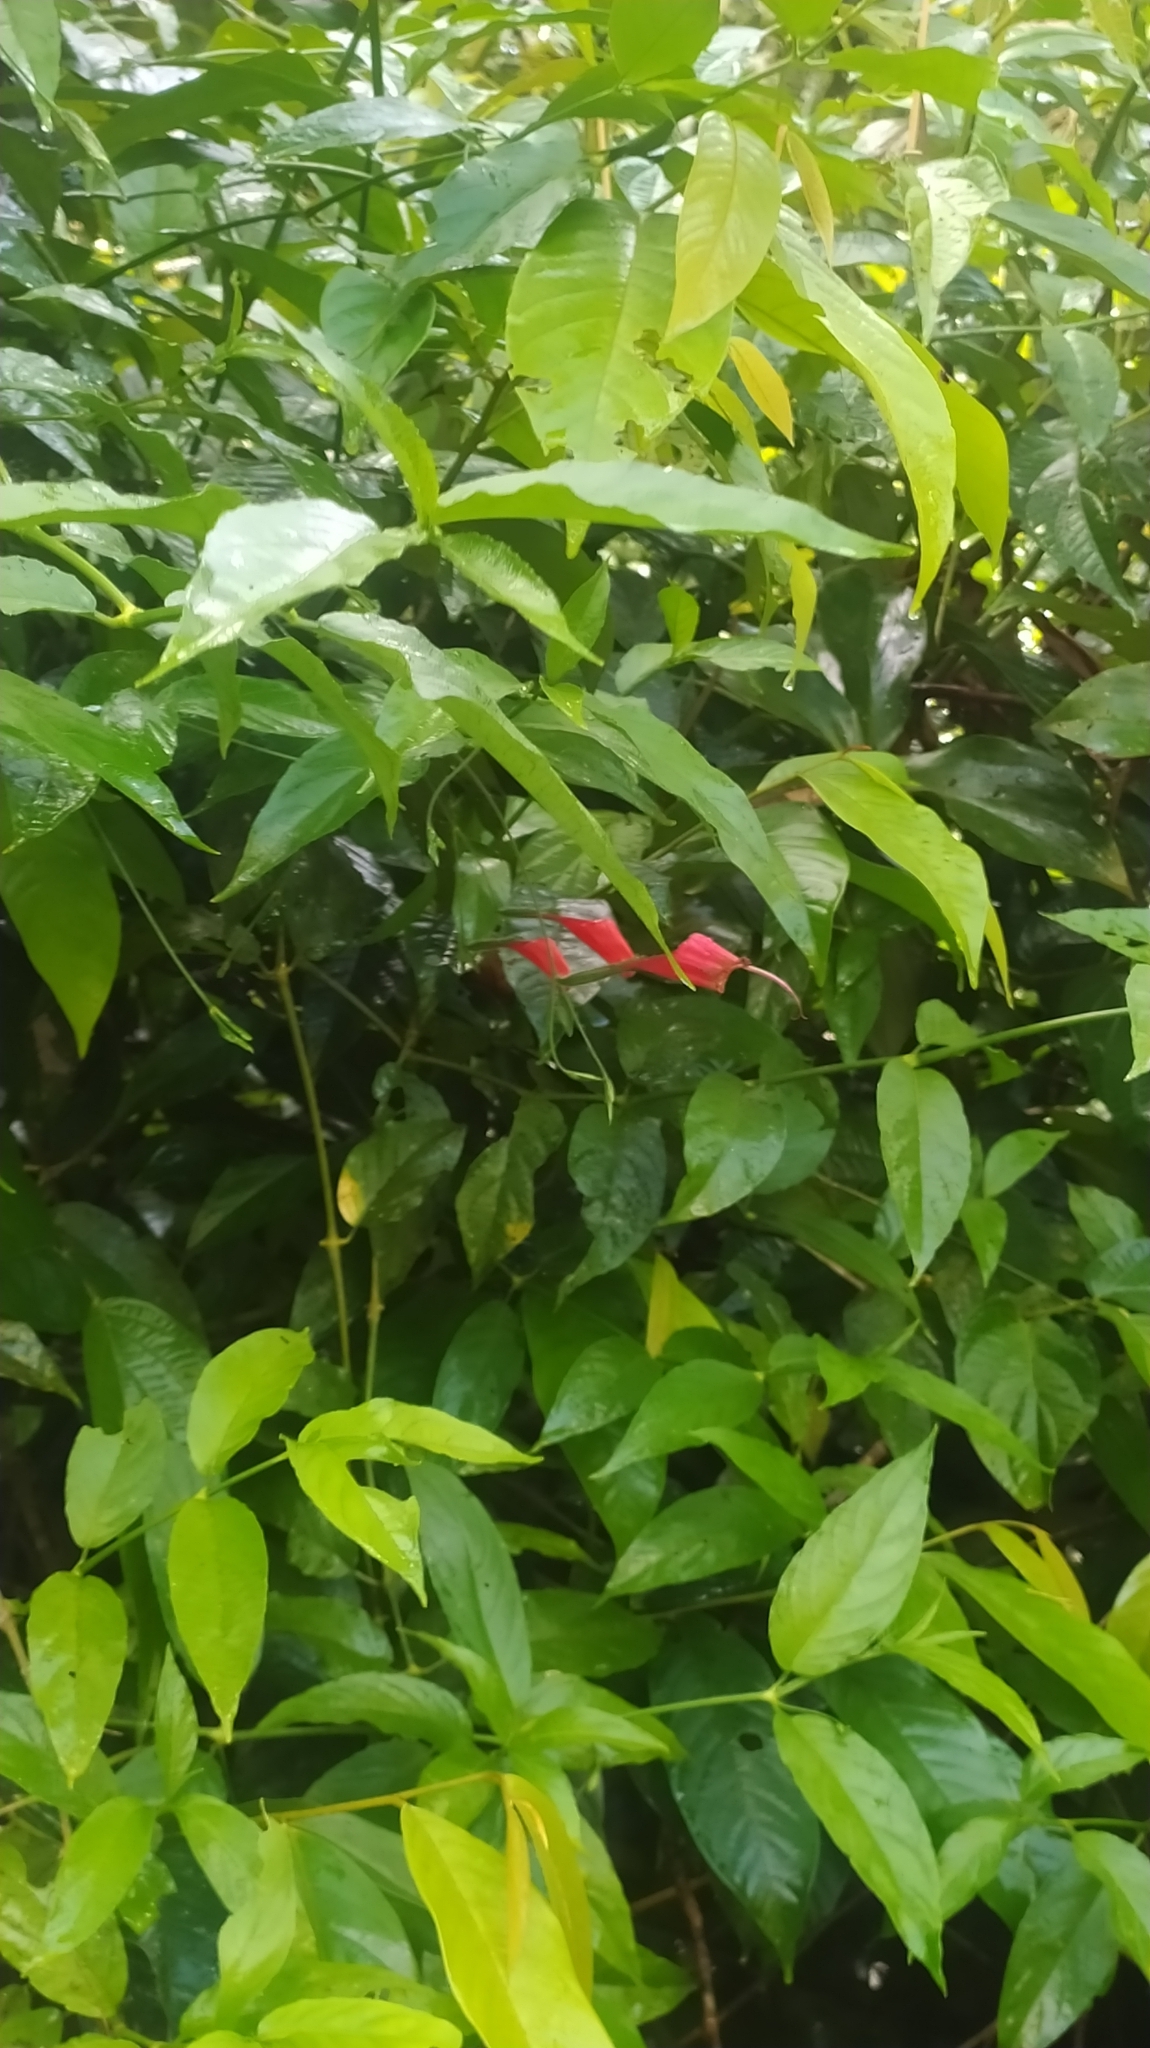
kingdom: Plantae
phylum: Tracheophyta
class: Magnoliopsida
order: Lamiales
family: Acanthaceae
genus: Ruellia
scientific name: Ruellia inflata
